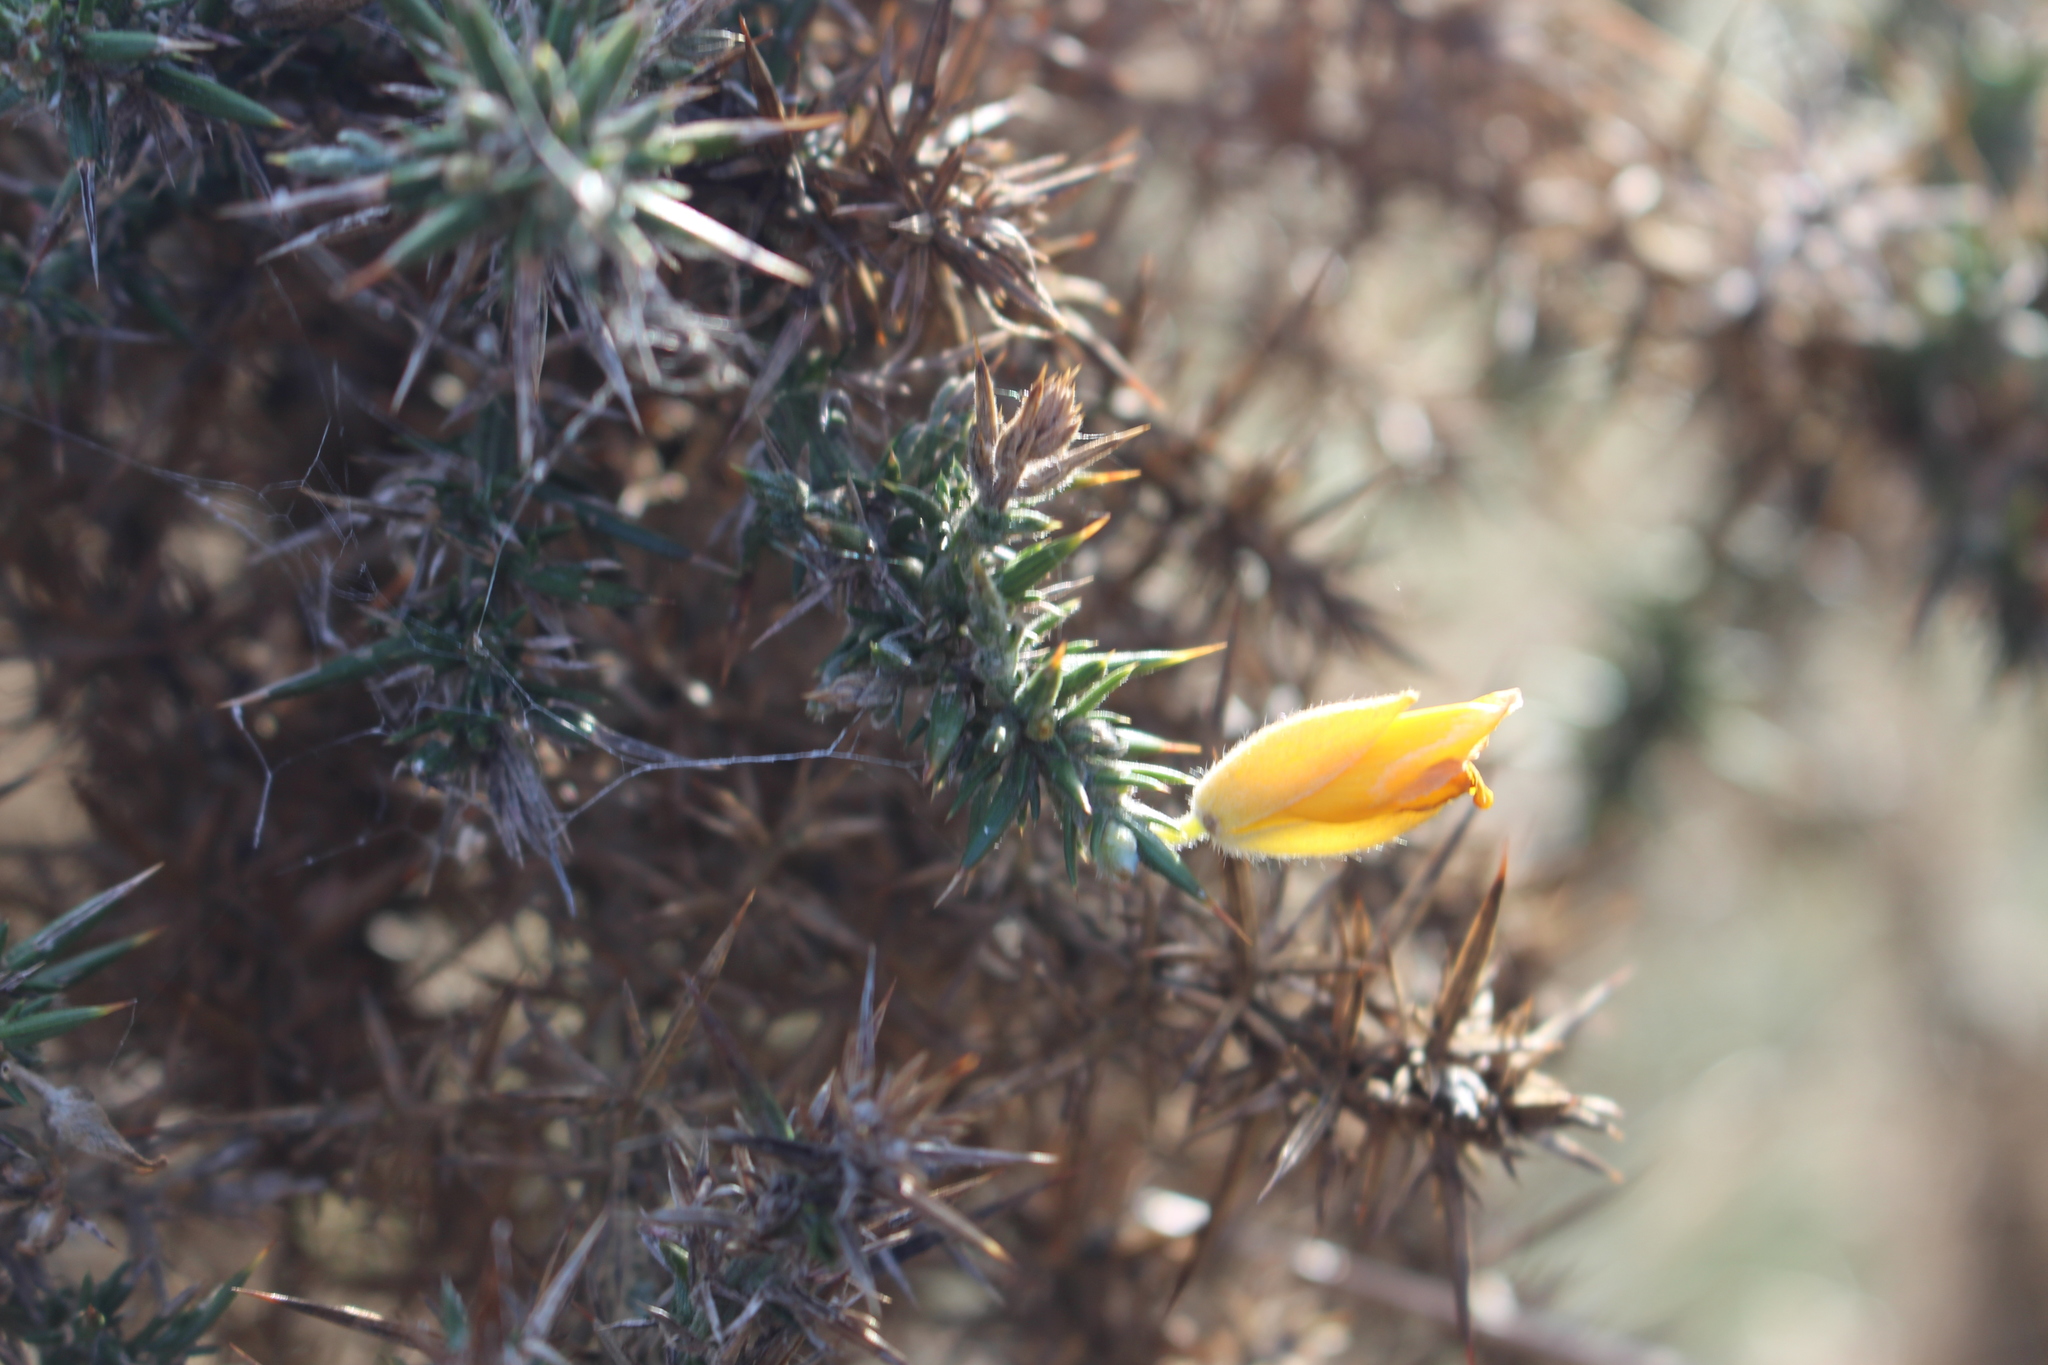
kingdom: Plantae
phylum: Tracheophyta
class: Magnoliopsida
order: Fabales
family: Fabaceae
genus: Ulex
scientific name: Ulex europaeus
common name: Common gorse
